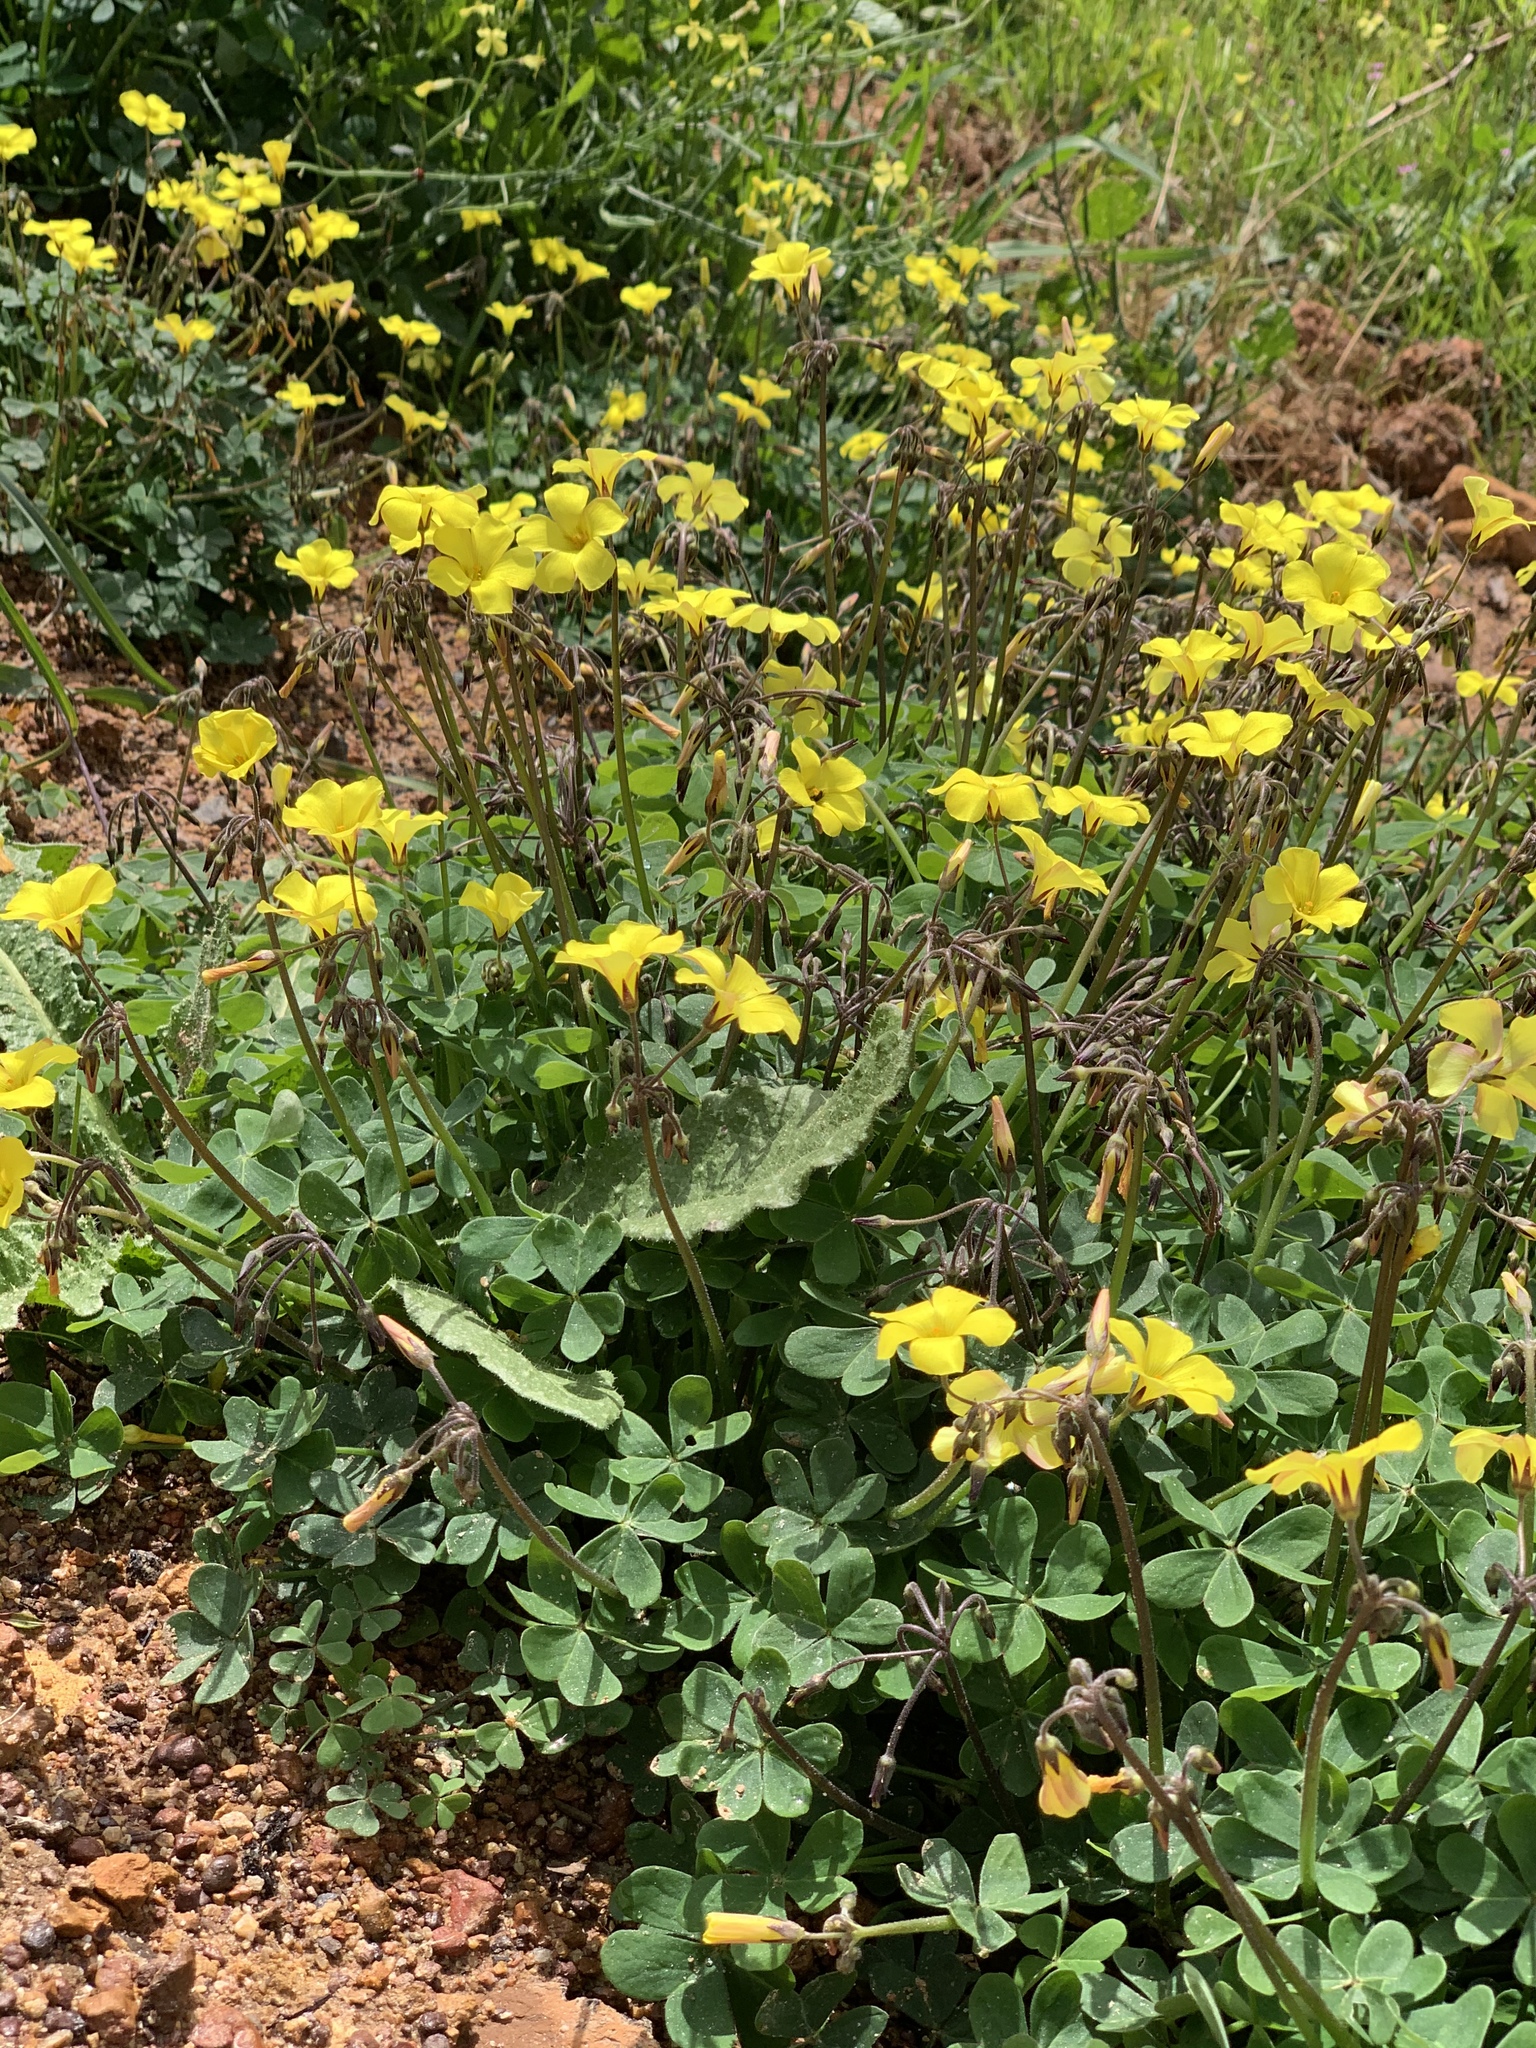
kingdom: Plantae
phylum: Tracheophyta
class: Magnoliopsida
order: Oxalidales
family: Oxalidaceae
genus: Oxalis
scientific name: Oxalis pes-caprae
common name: Bermuda-buttercup
